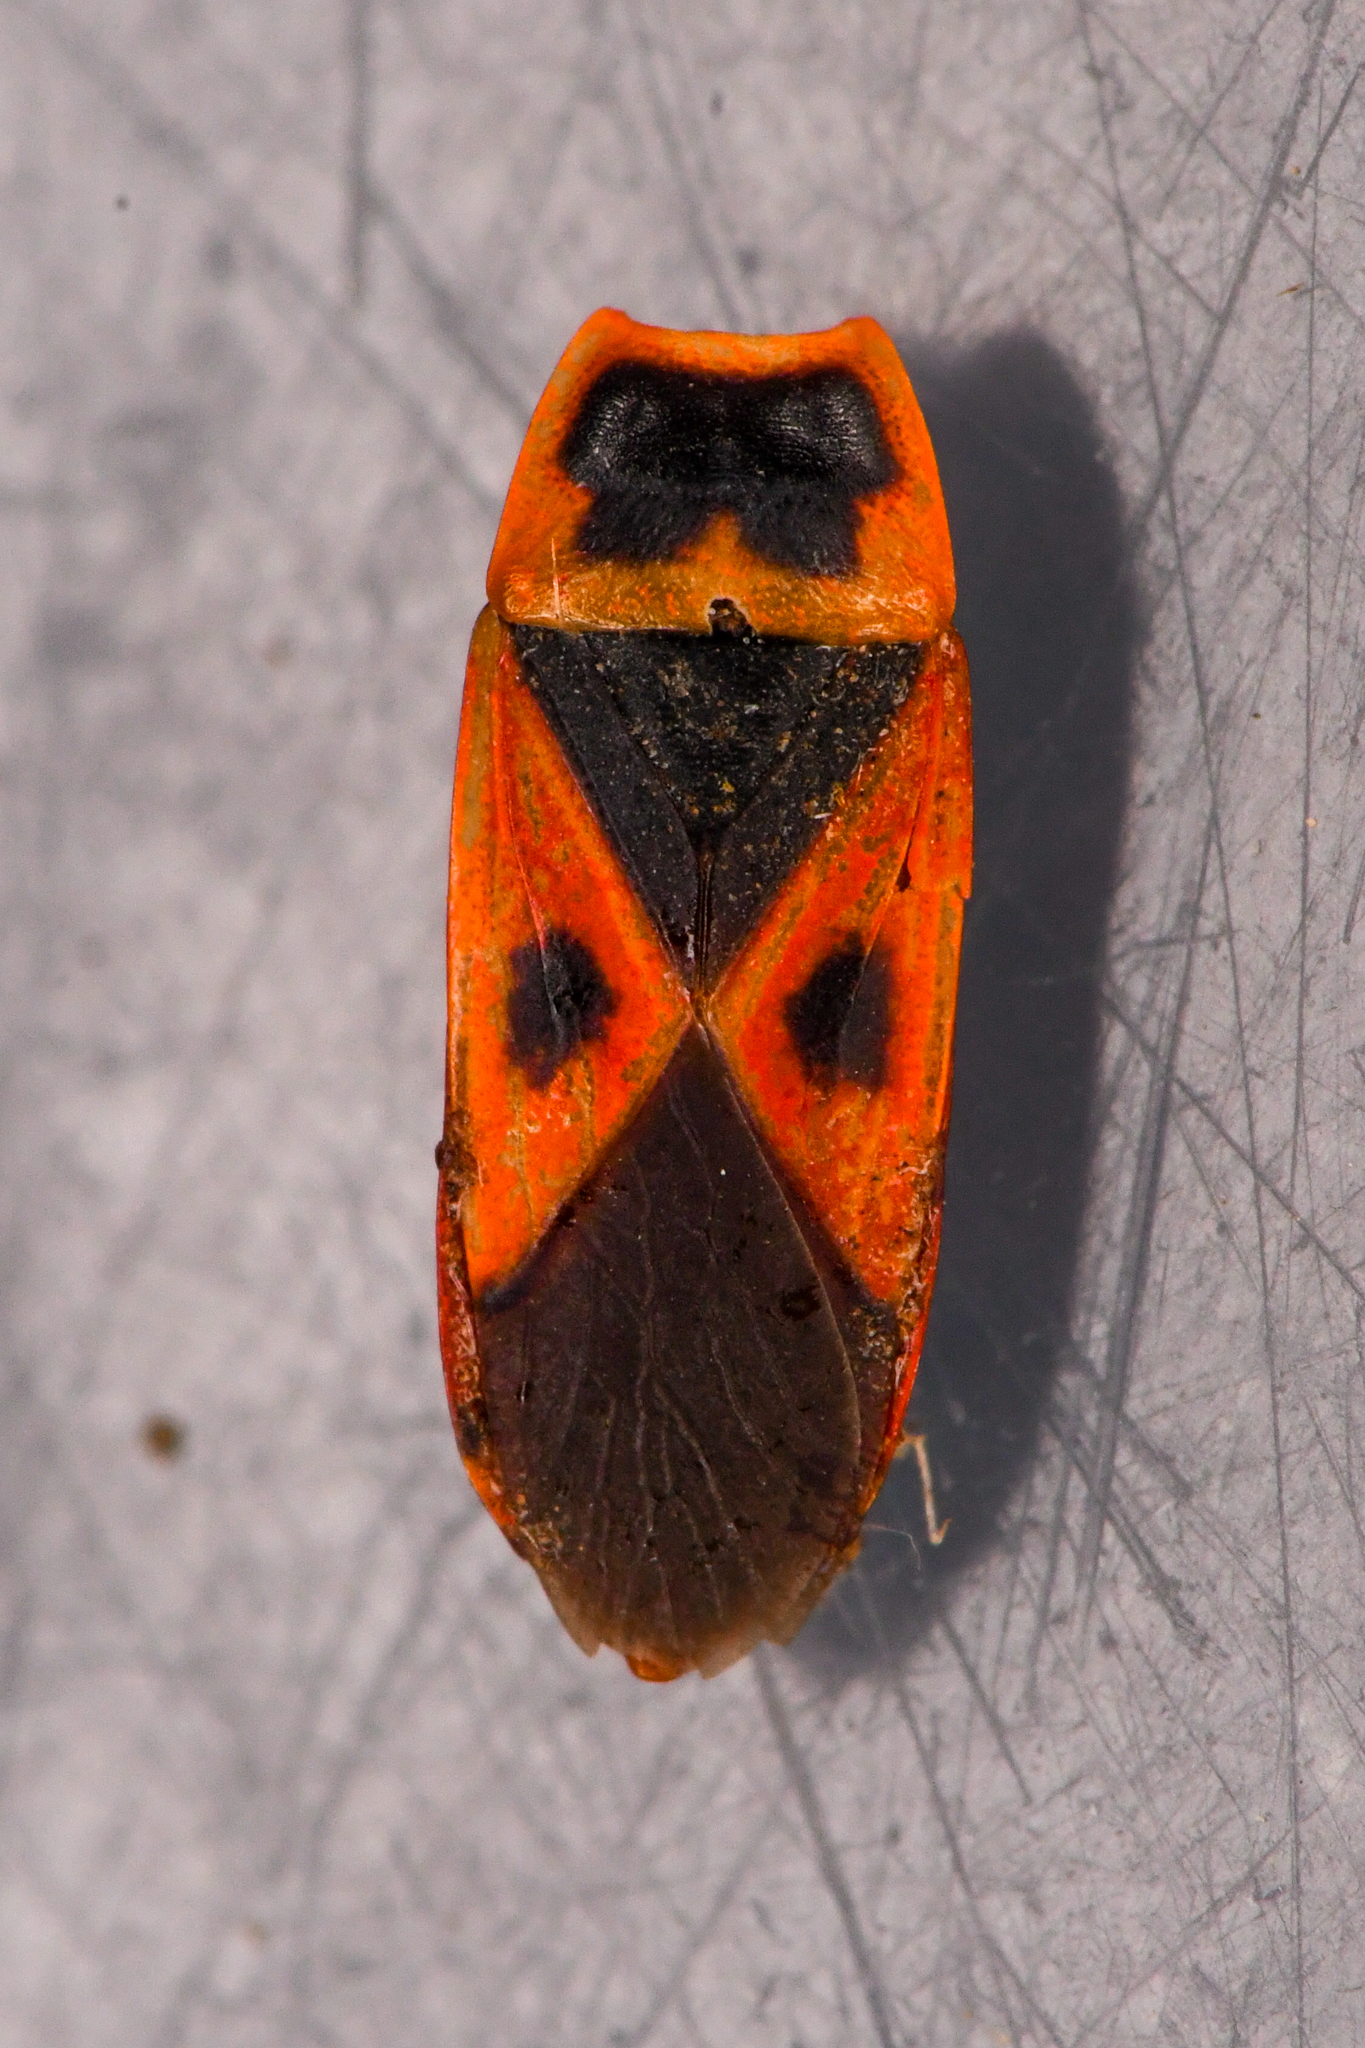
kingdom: Animalia
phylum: Arthropoda
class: Insecta
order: Hemiptera
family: Pyrrhocoridae
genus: Scantius
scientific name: Scantius aegyptius
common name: Red bug
